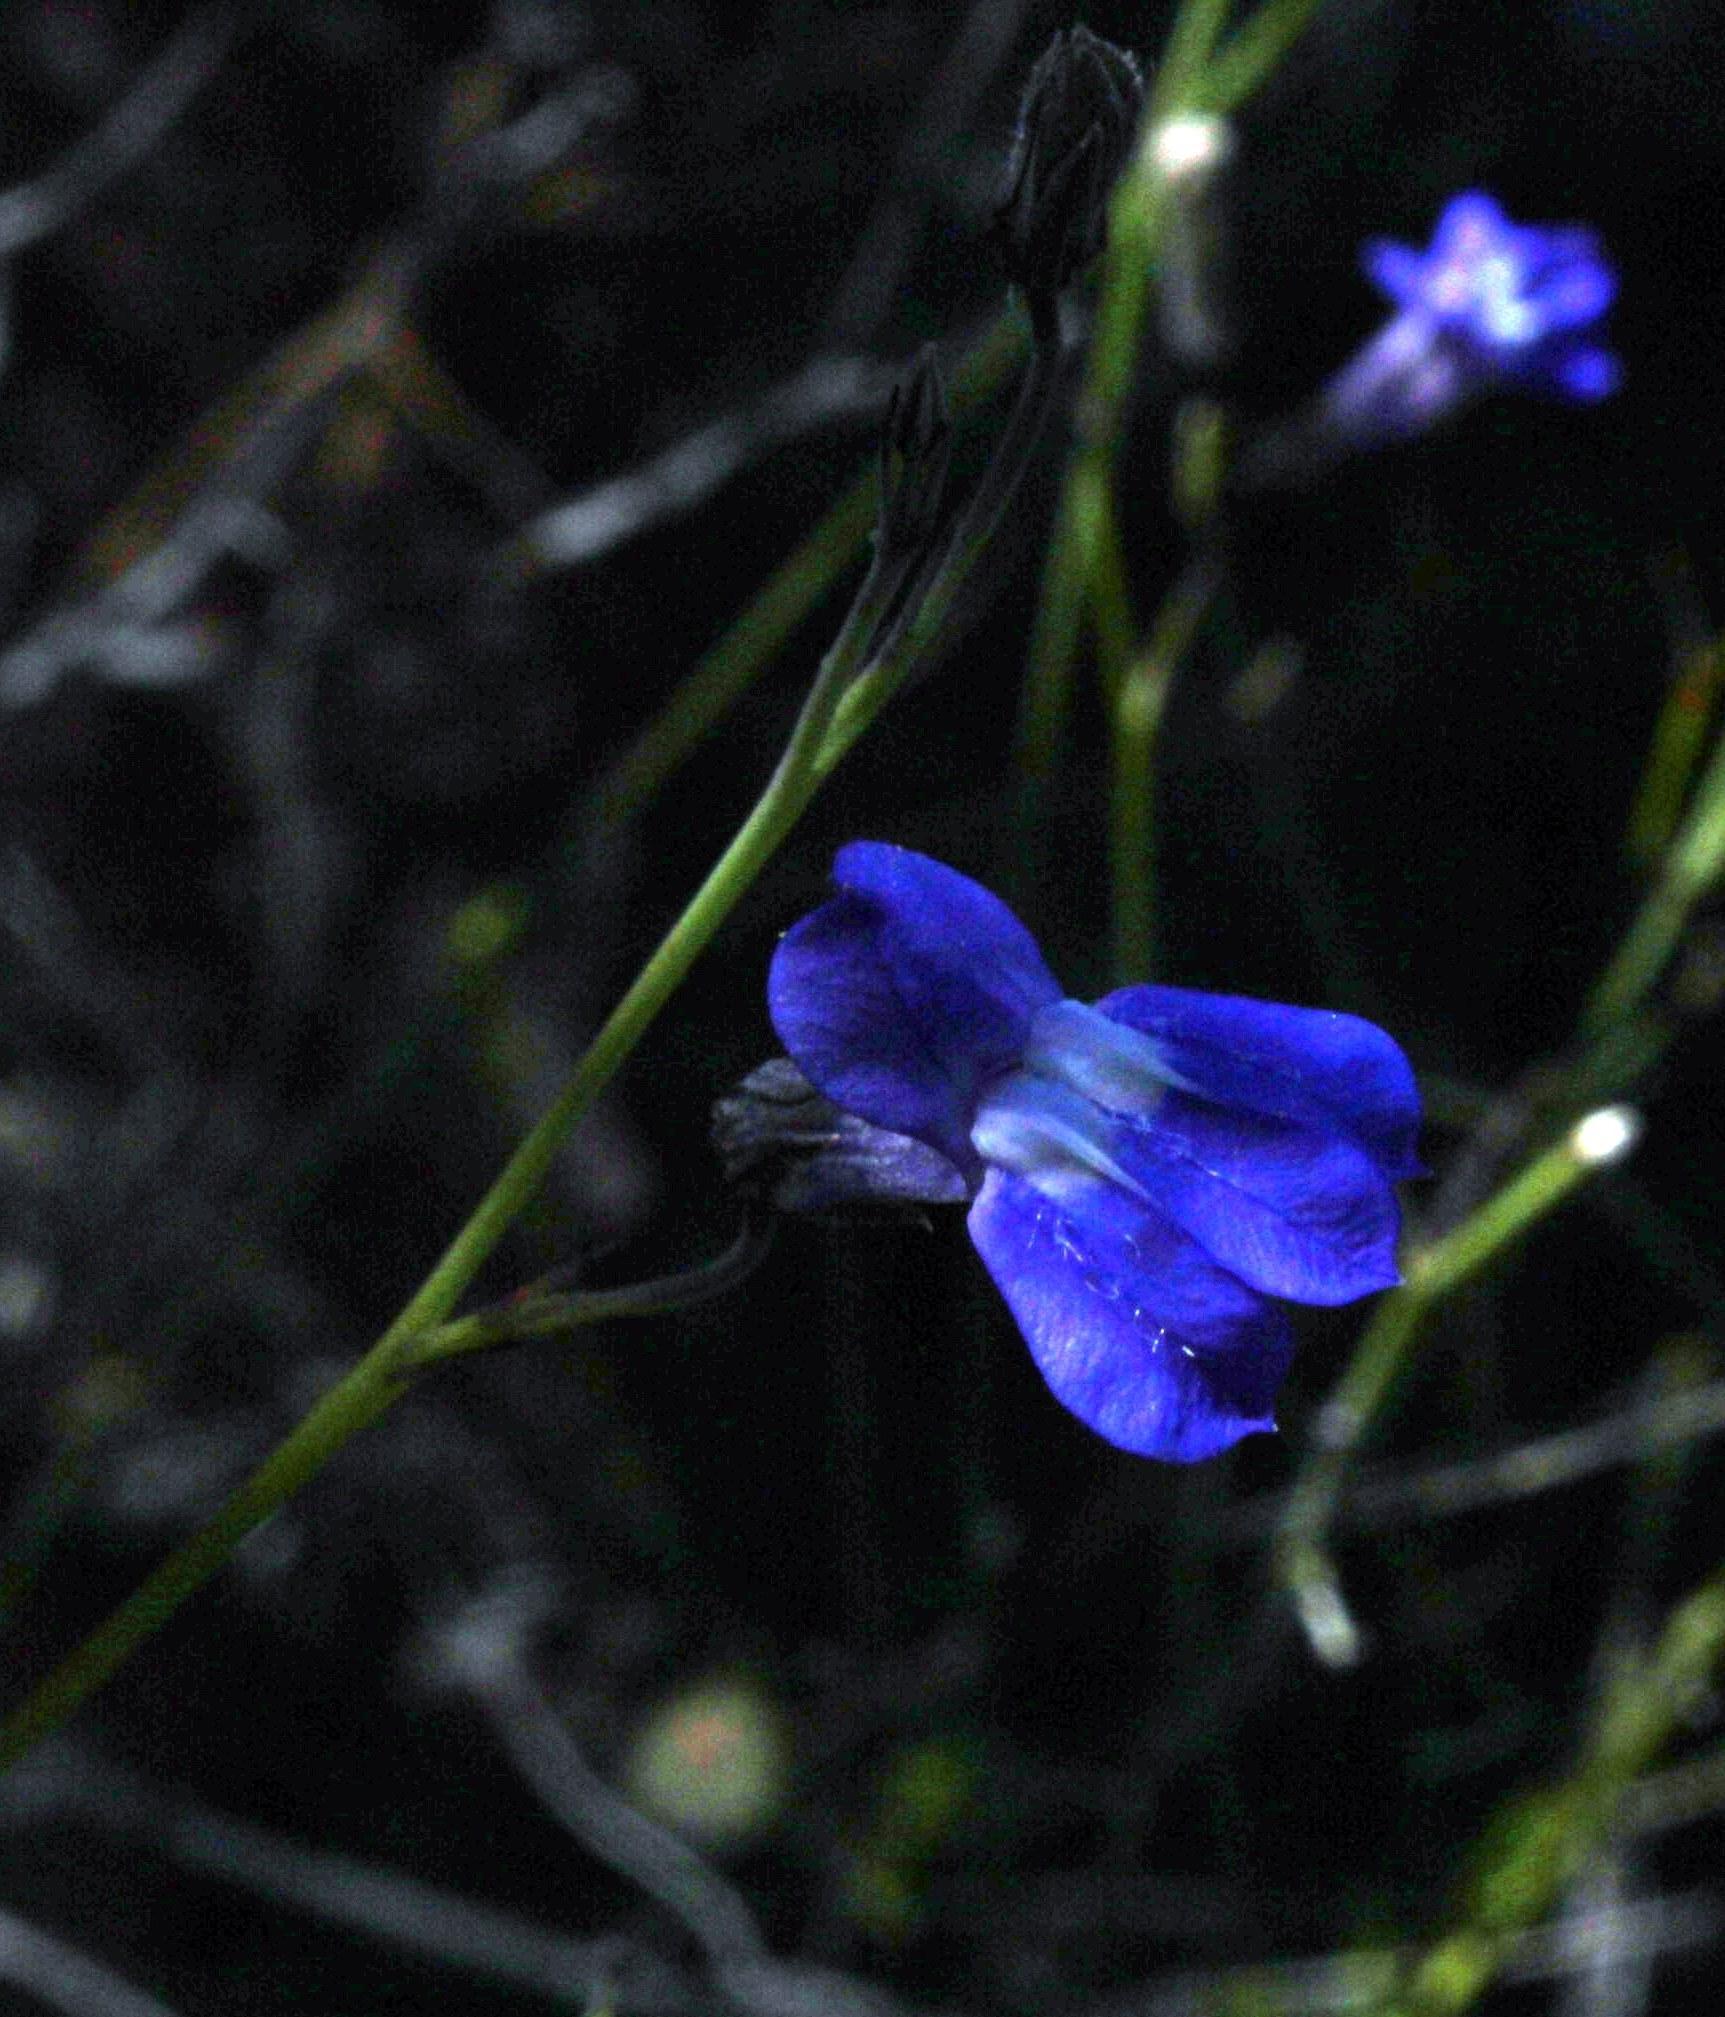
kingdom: Plantae
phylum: Tracheophyta
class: Magnoliopsida
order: Asterales
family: Campanulaceae
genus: Lobelia
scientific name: Lobelia linearis
